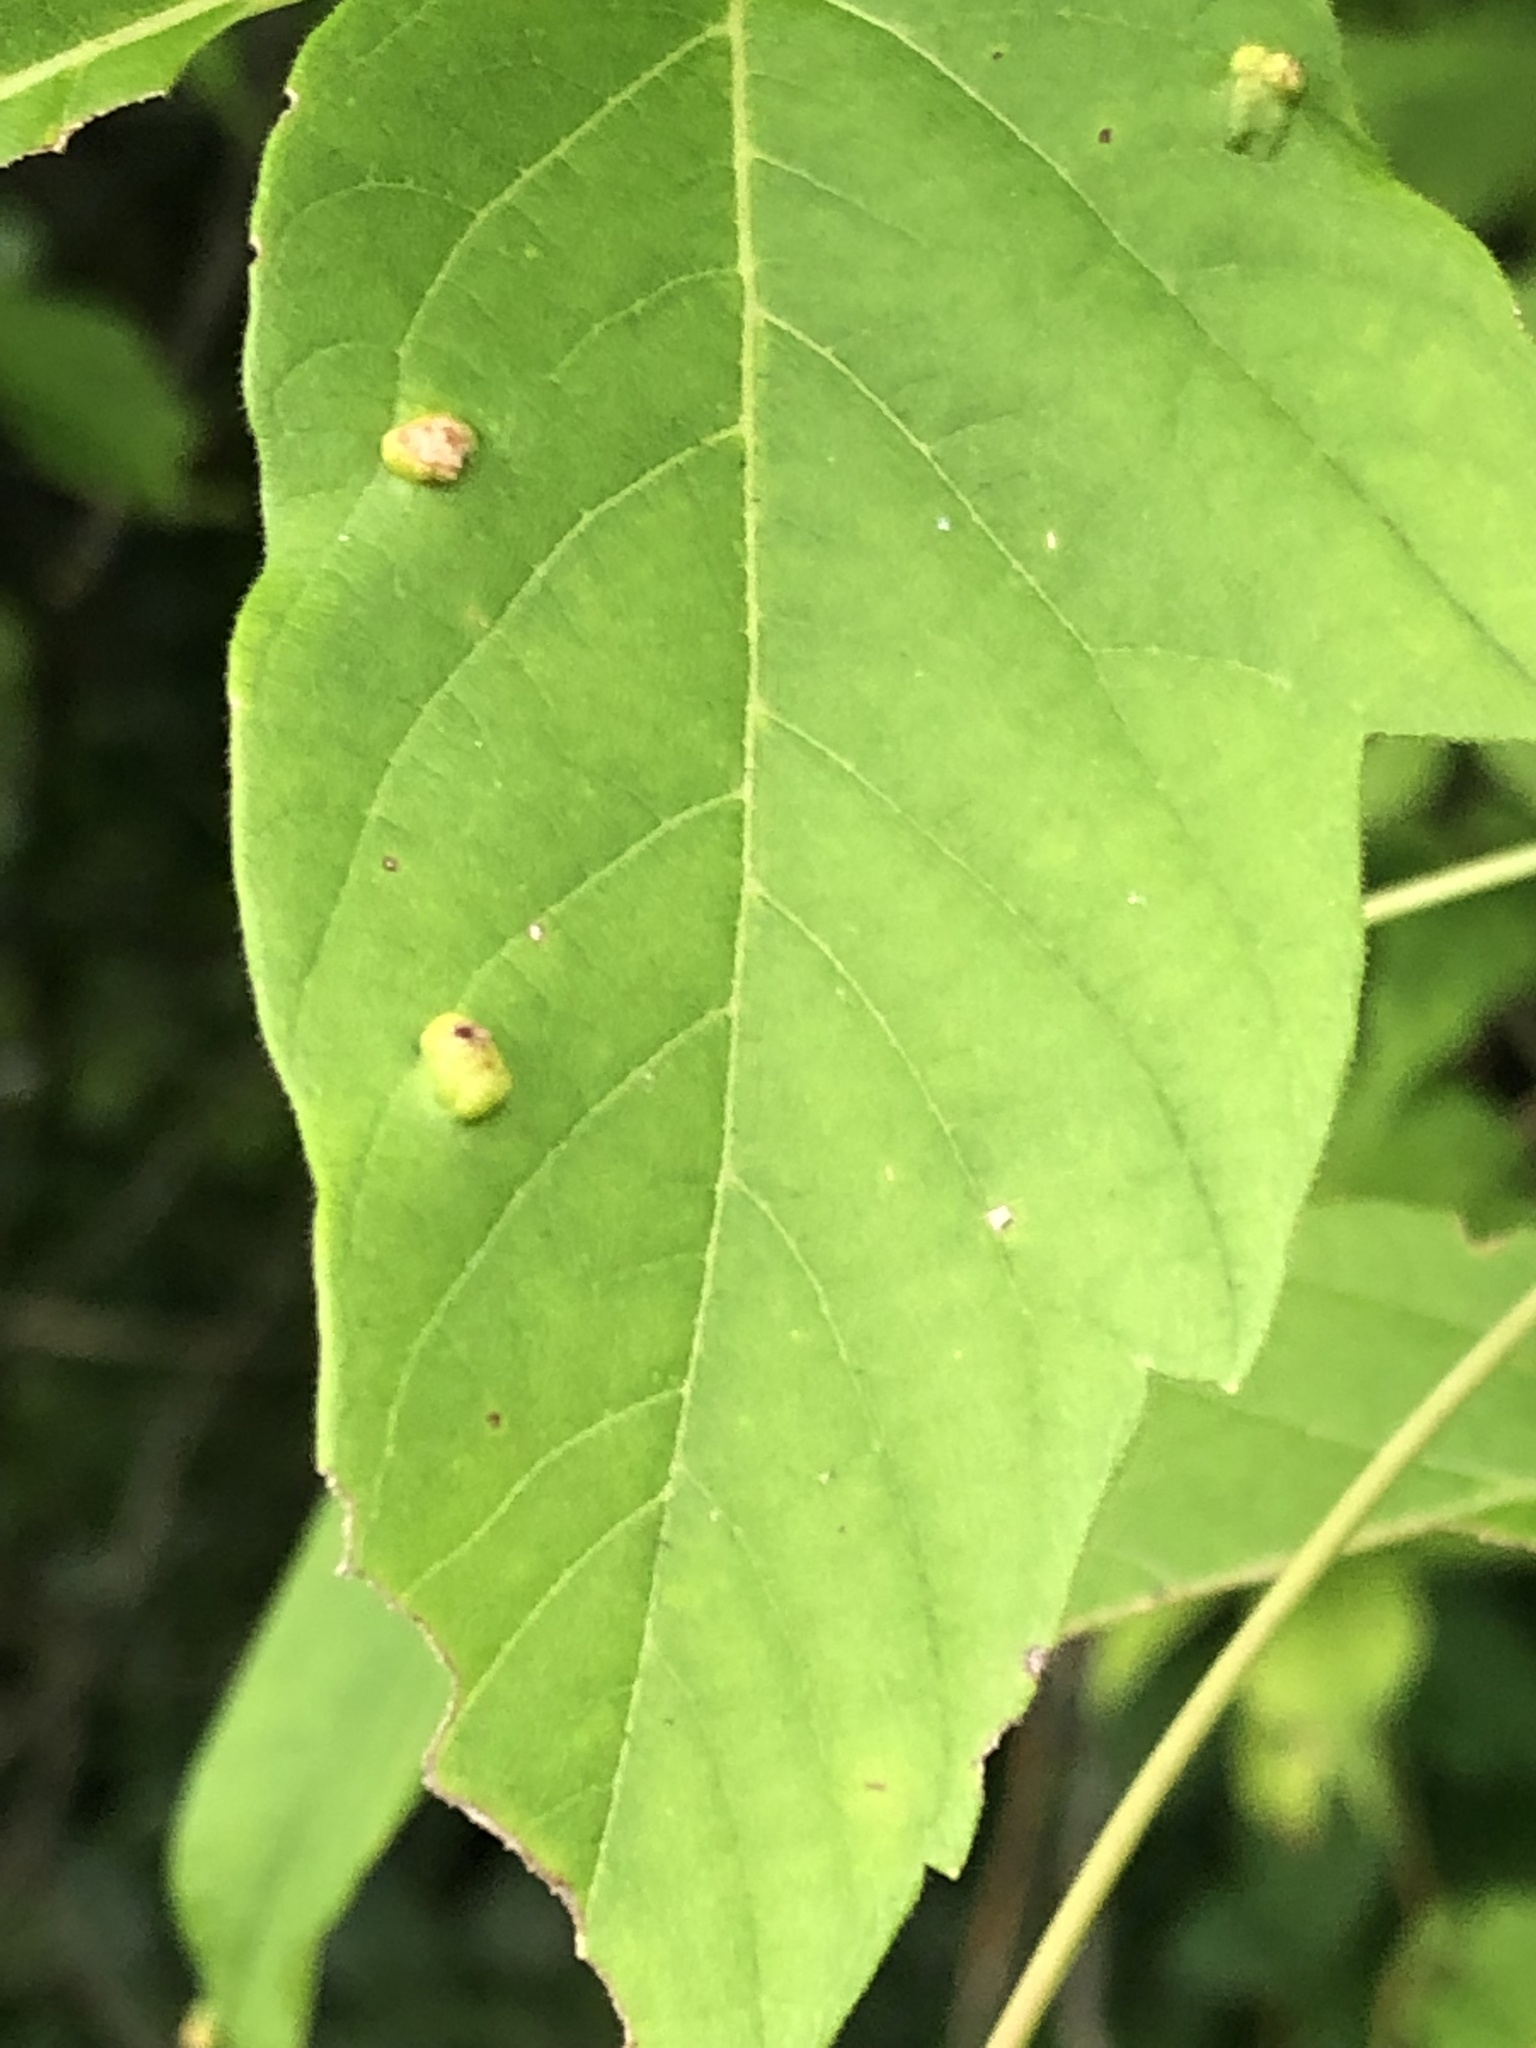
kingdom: Animalia
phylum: Arthropoda
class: Arachnida
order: Trombidiformes
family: Eriophyidae
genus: Aceria
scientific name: Aceria
